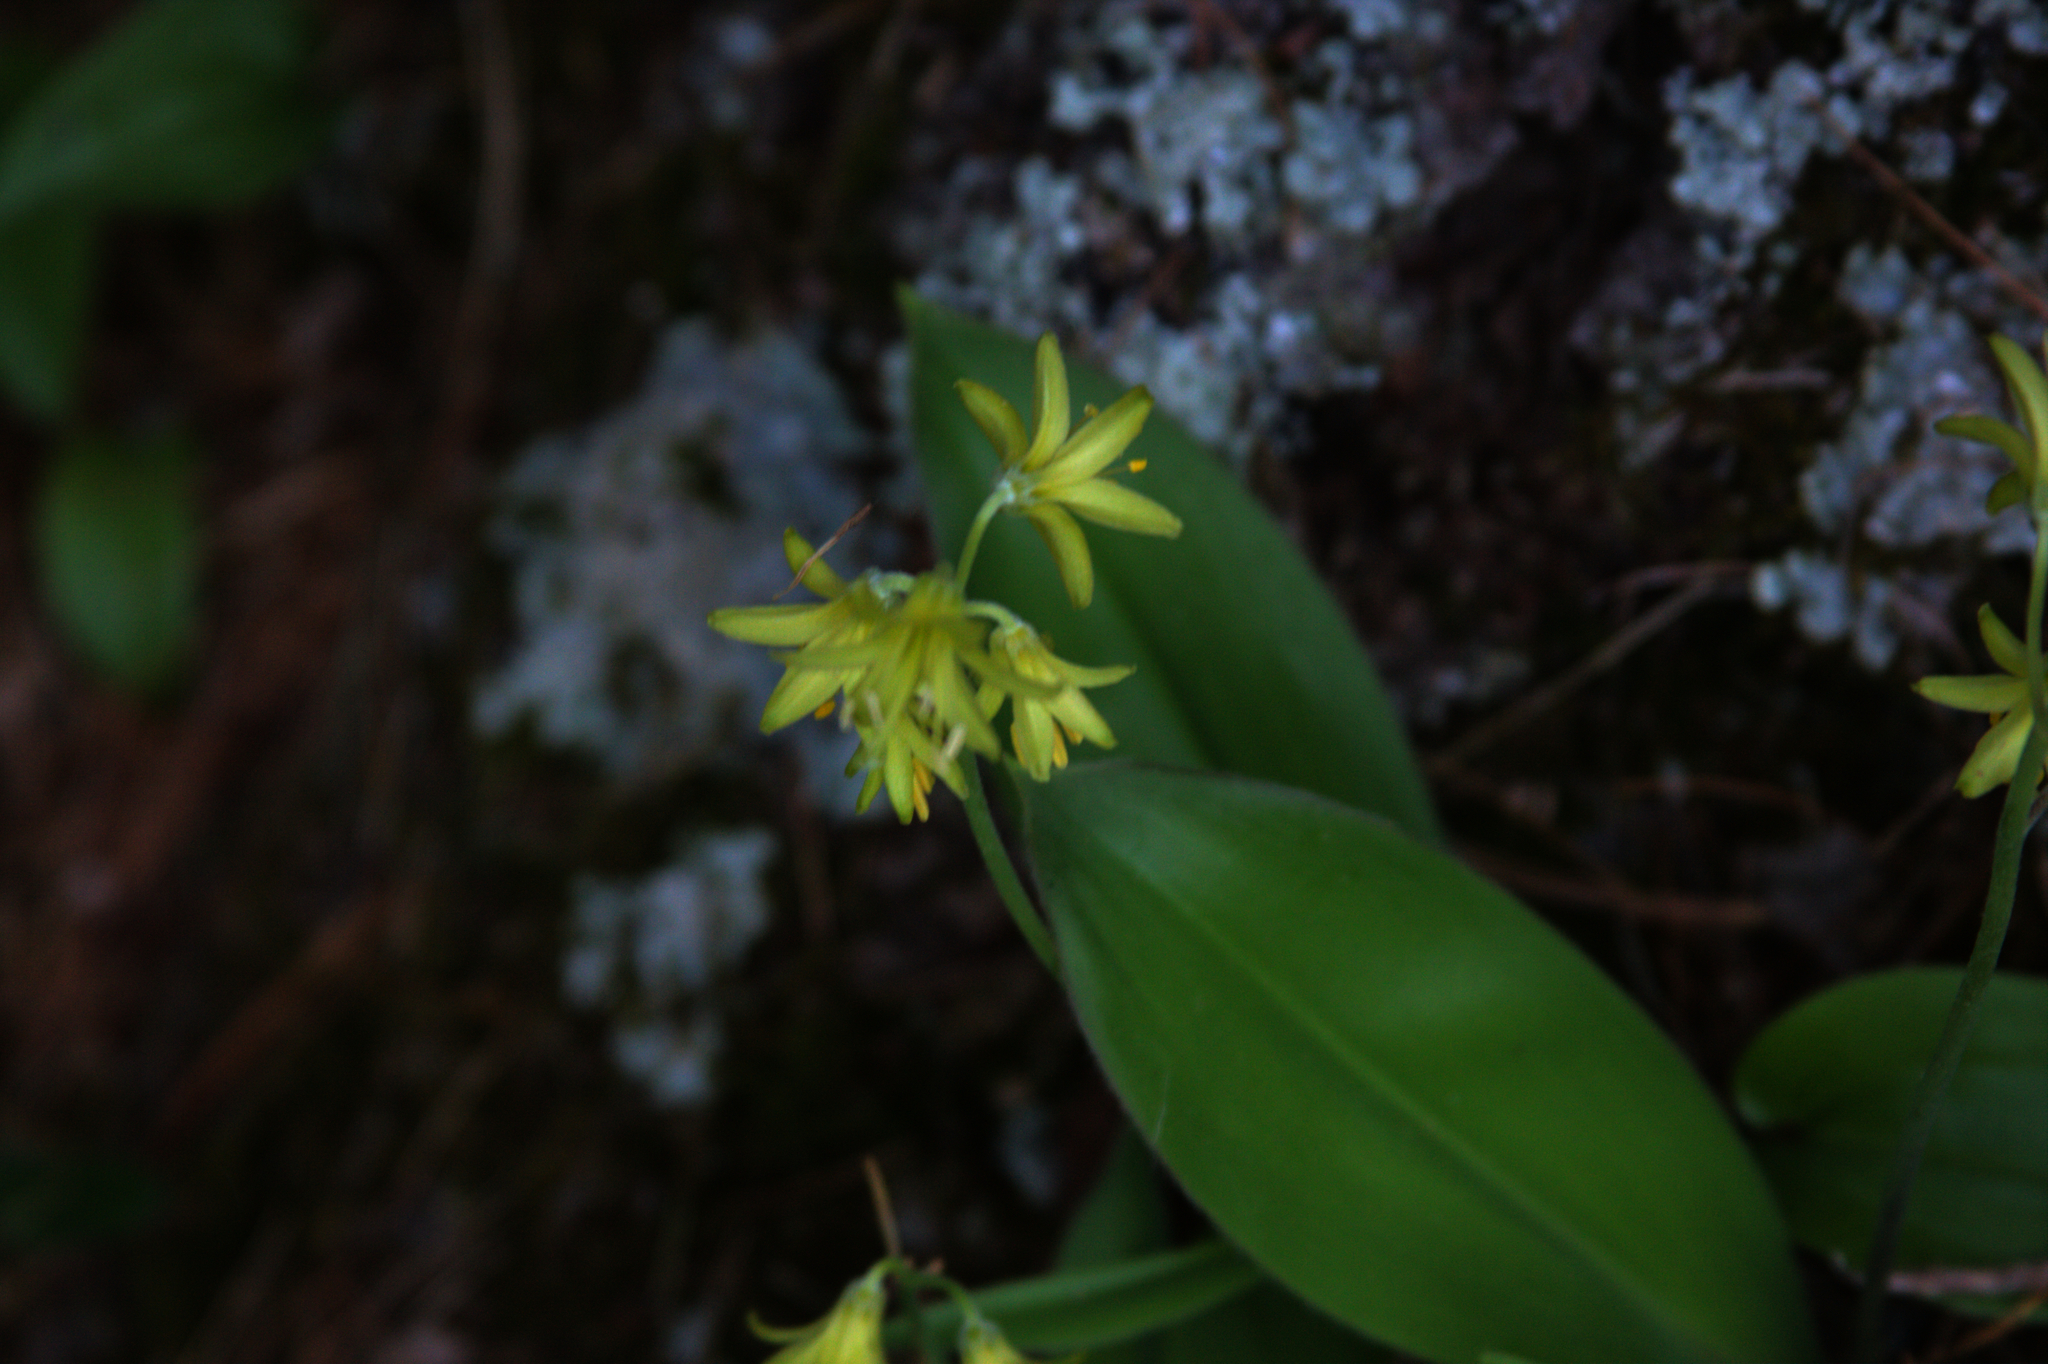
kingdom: Plantae
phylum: Tracheophyta
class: Liliopsida
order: Liliales
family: Liliaceae
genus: Clintonia
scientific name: Clintonia borealis
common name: Yellow clintonia
